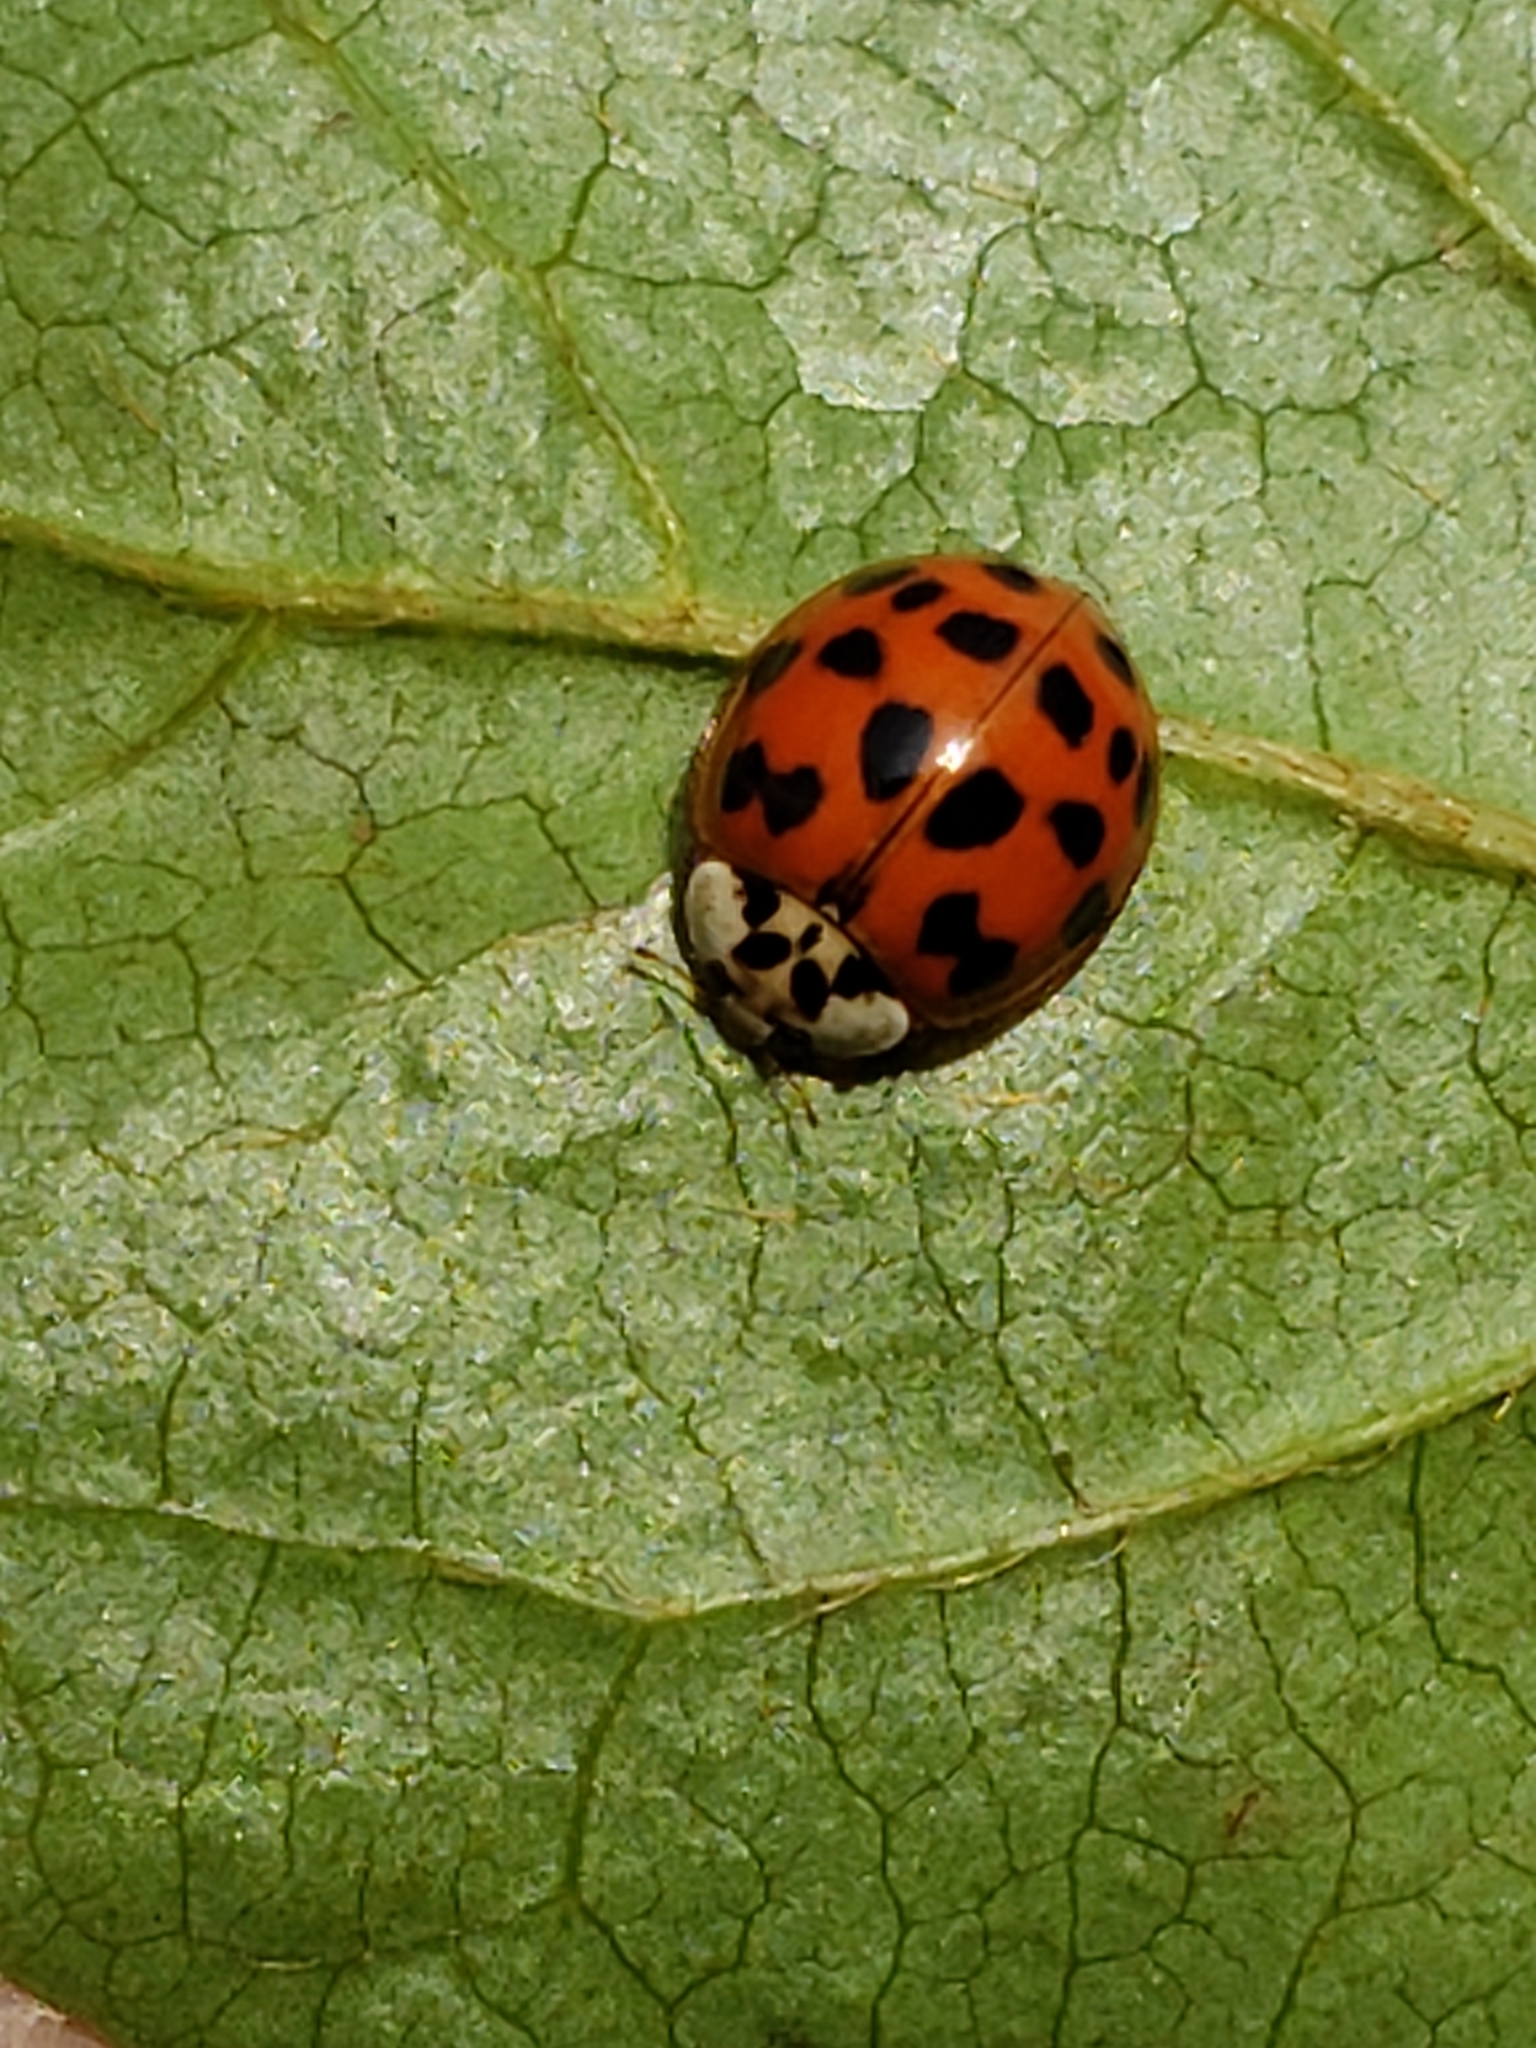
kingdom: Animalia
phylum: Arthropoda
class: Insecta
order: Coleoptera
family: Coccinellidae
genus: Harmonia
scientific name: Harmonia axyridis
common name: Harlequin ladybird
